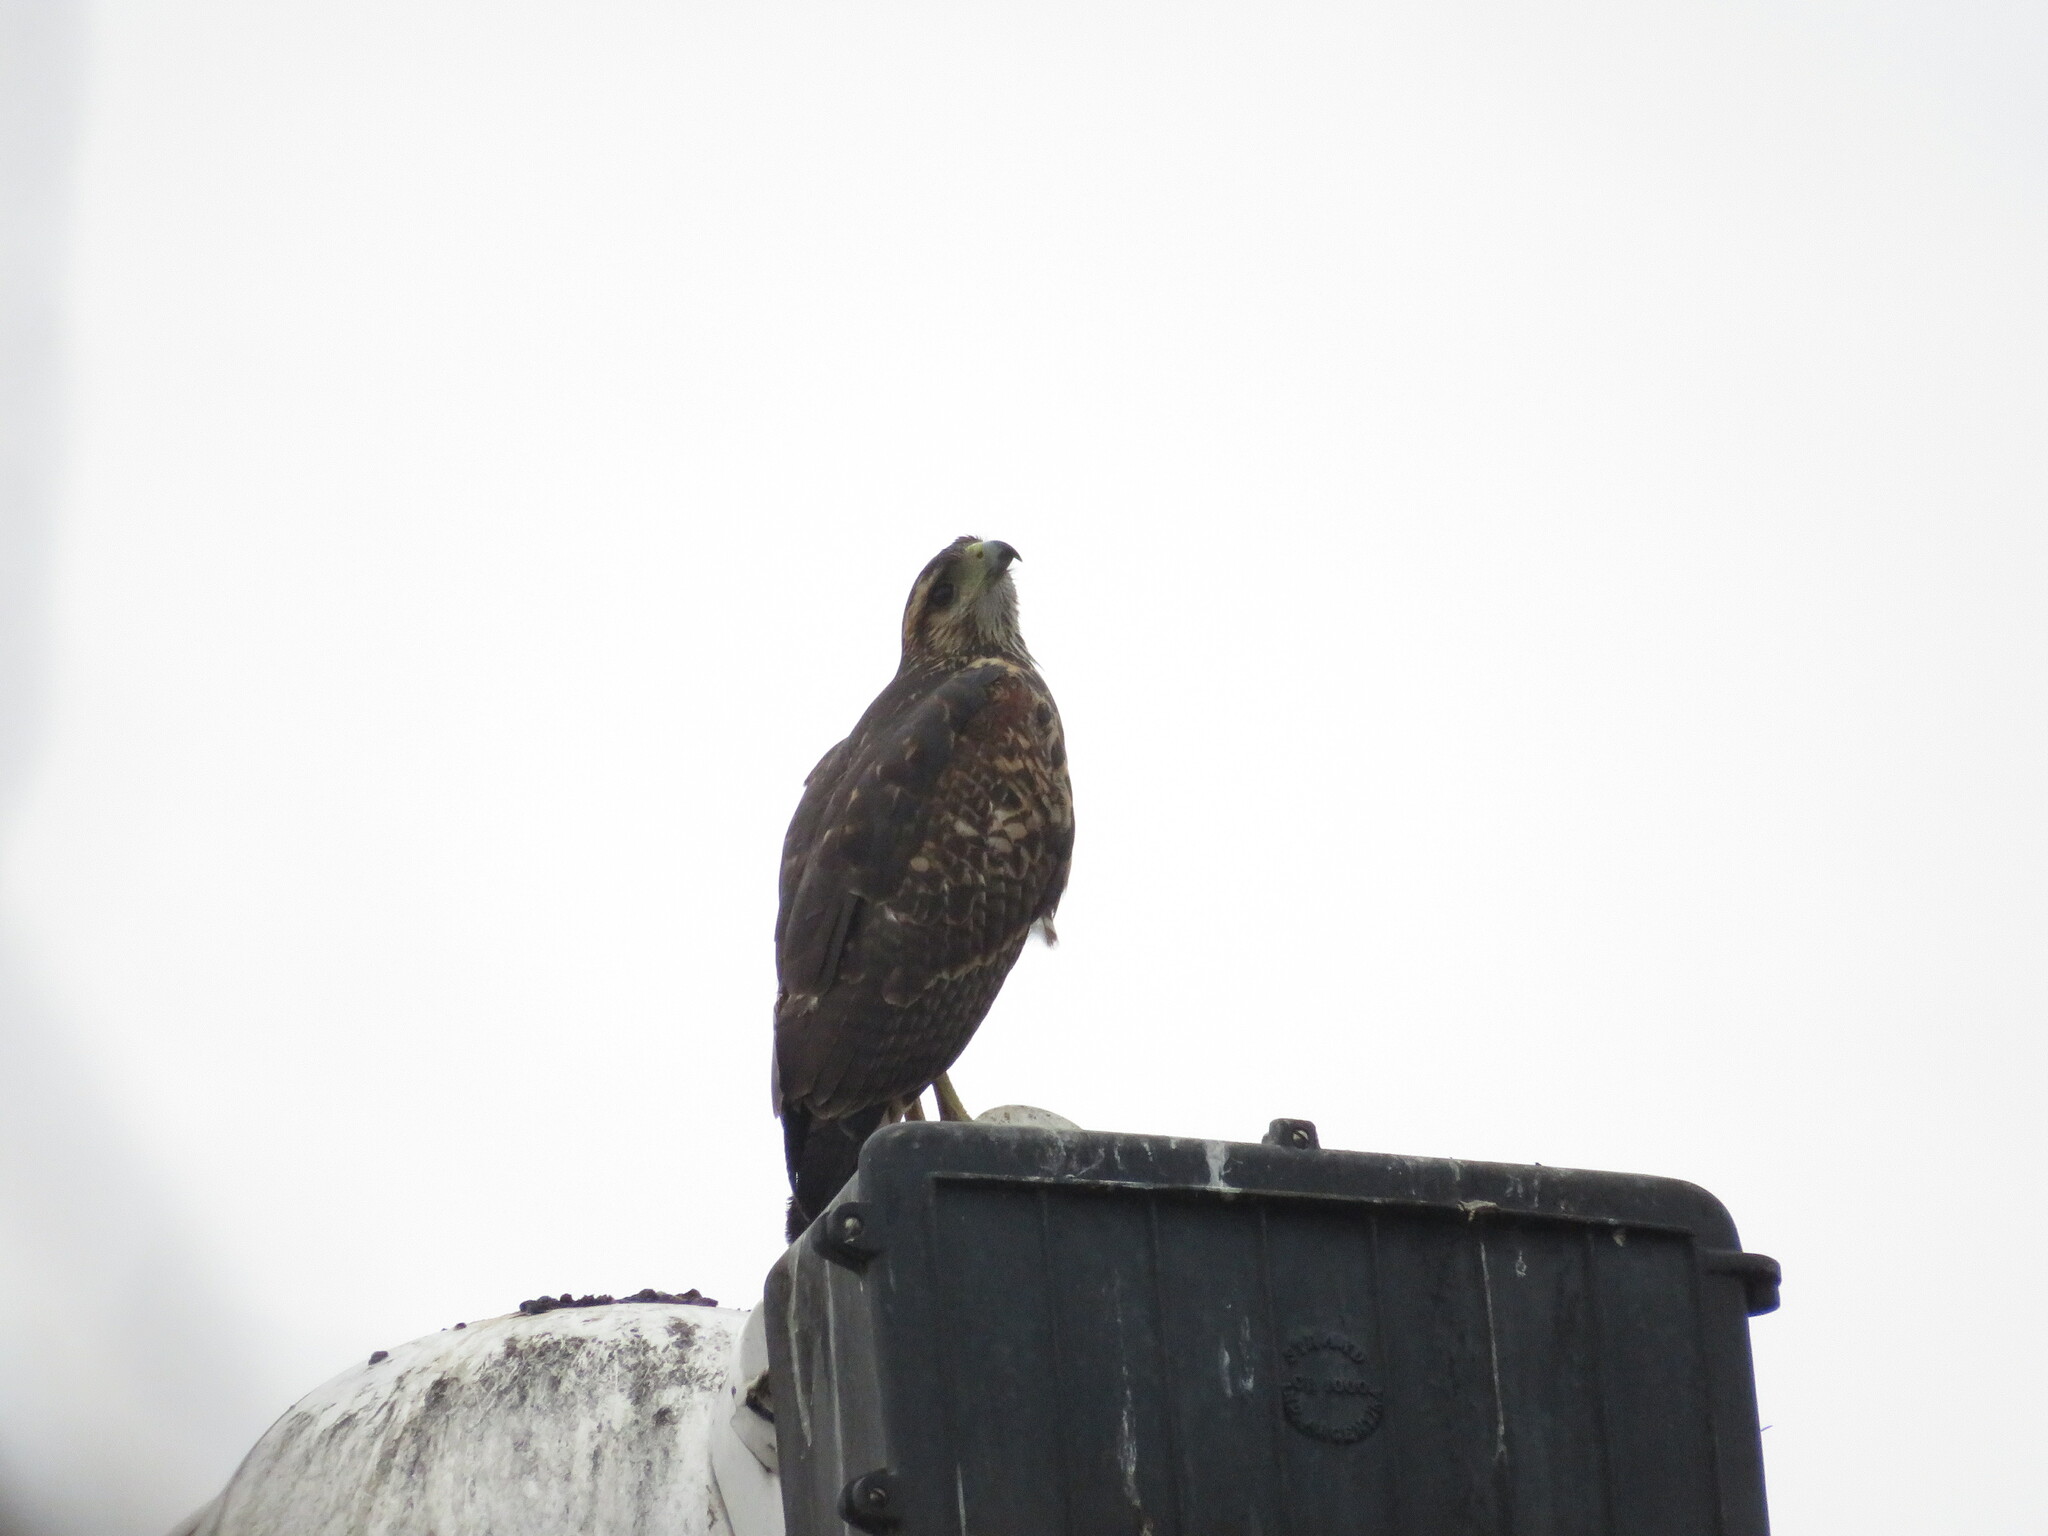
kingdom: Animalia
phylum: Chordata
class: Aves
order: Accipitriformes
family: Accipitridae
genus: Parabuteo
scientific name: Parabuteo unicinctus
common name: Harris's hawk
